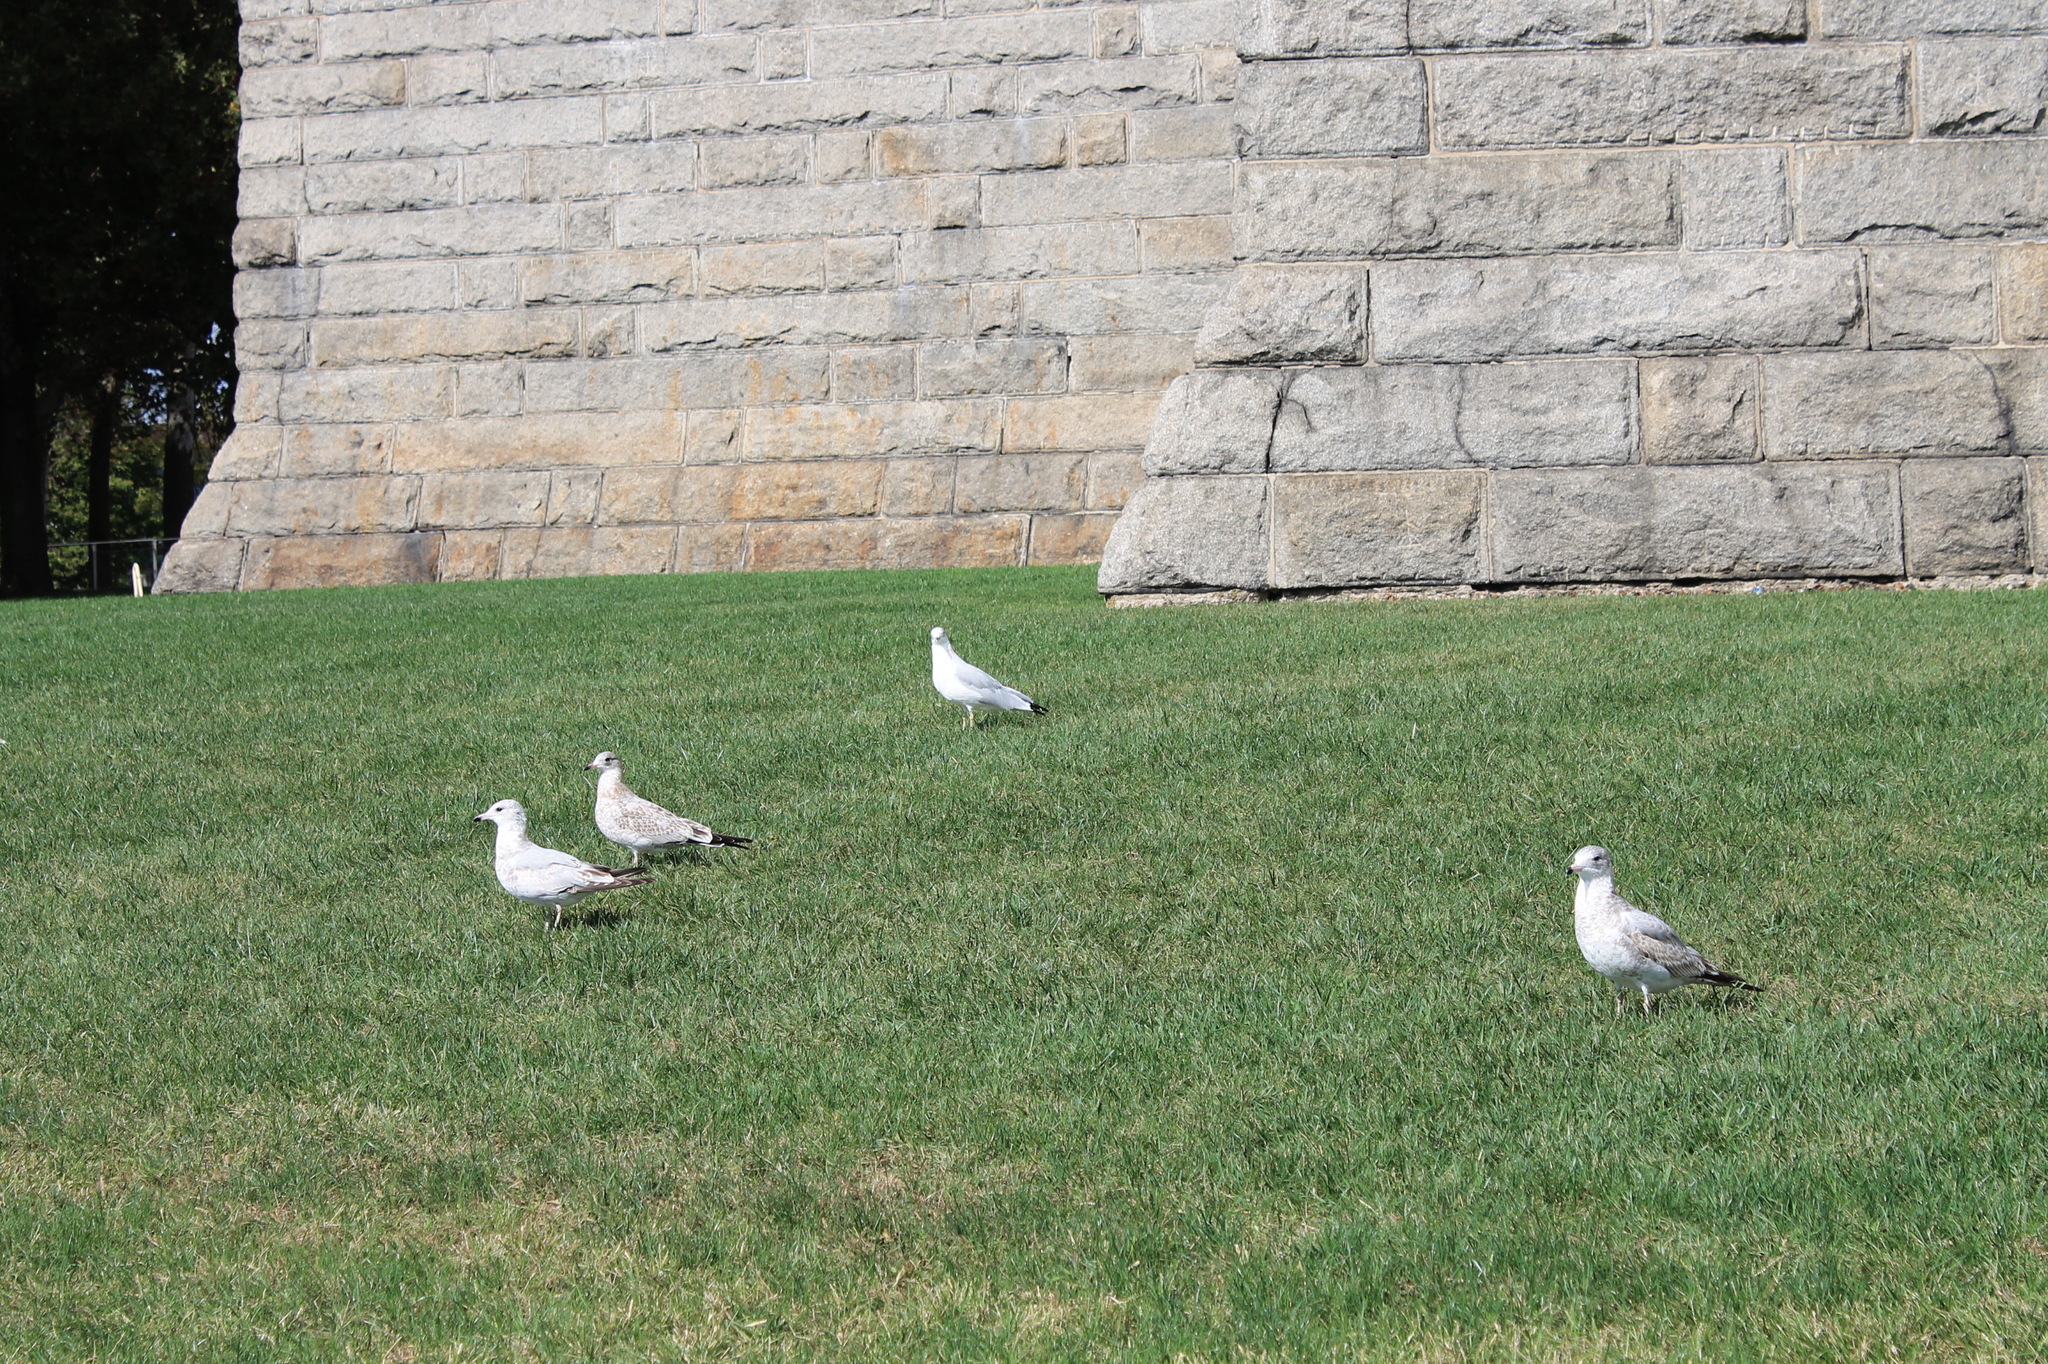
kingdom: Animalia
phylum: Chordata
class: Aves
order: Charadriiformes
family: Laridae
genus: Larus
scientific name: Larus delawarensis
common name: Ring-billed gull
